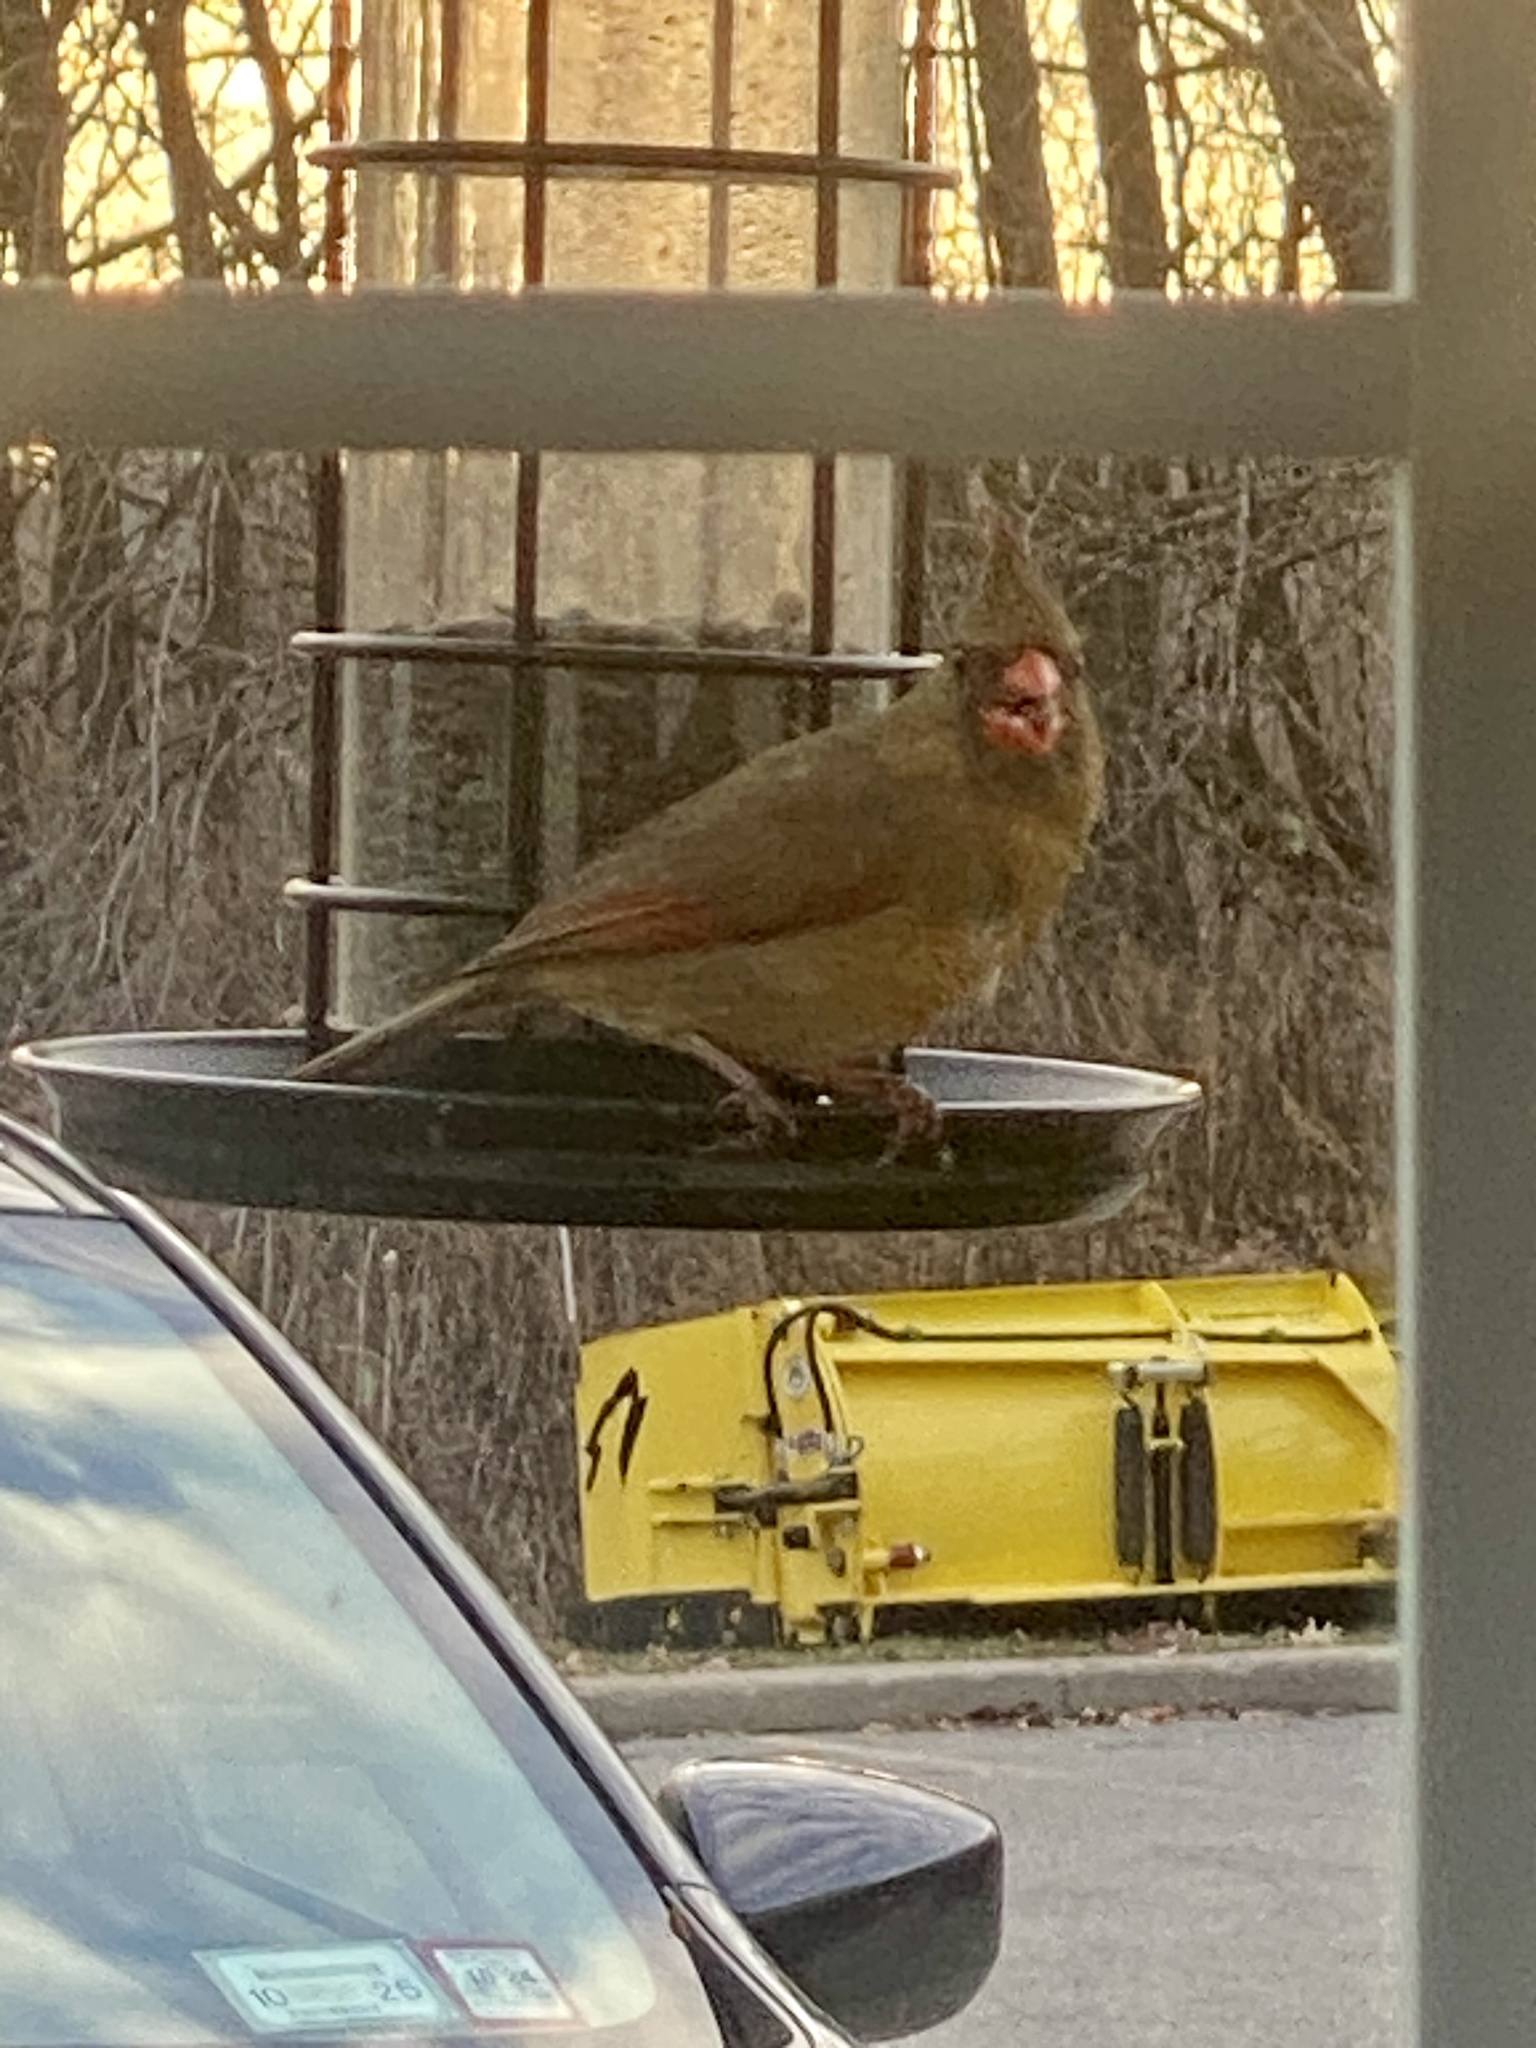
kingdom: Animalia
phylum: Chordata
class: Aves
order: Passeriformes
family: Cardinalidae
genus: Cardinalis
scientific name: Cardinalis cardinalis
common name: Northern cardinal
